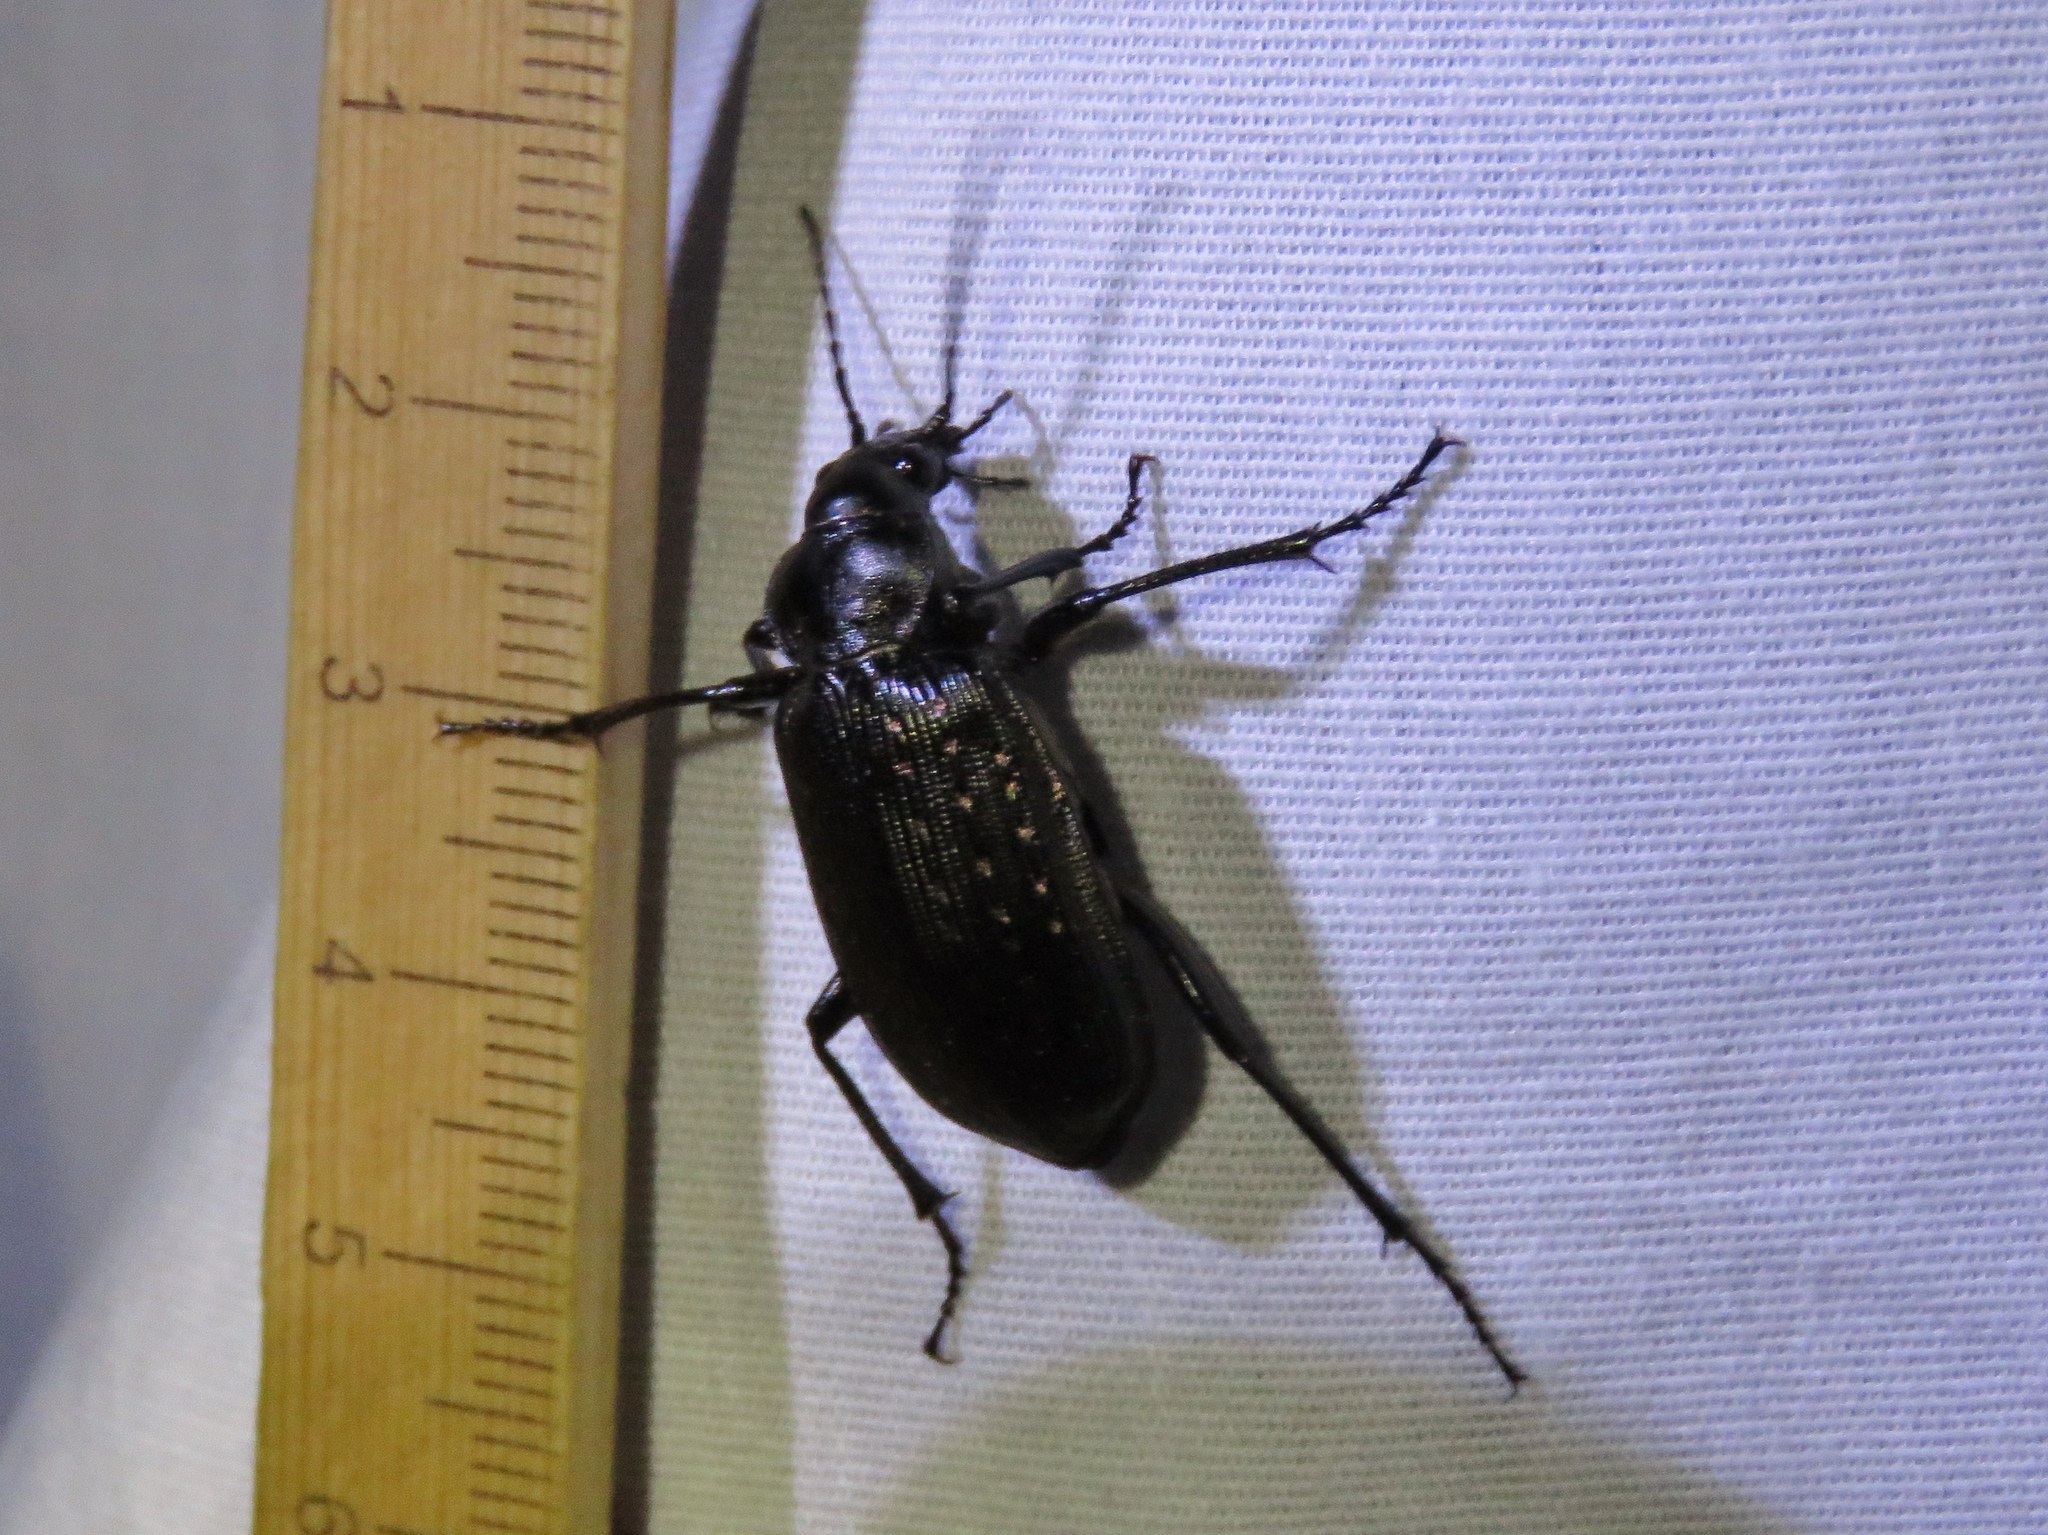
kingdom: Animalia
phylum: Arthropoda
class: Insecta
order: Coleoptera
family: Carabidae
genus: Calosoma
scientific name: Calosoma sayi
